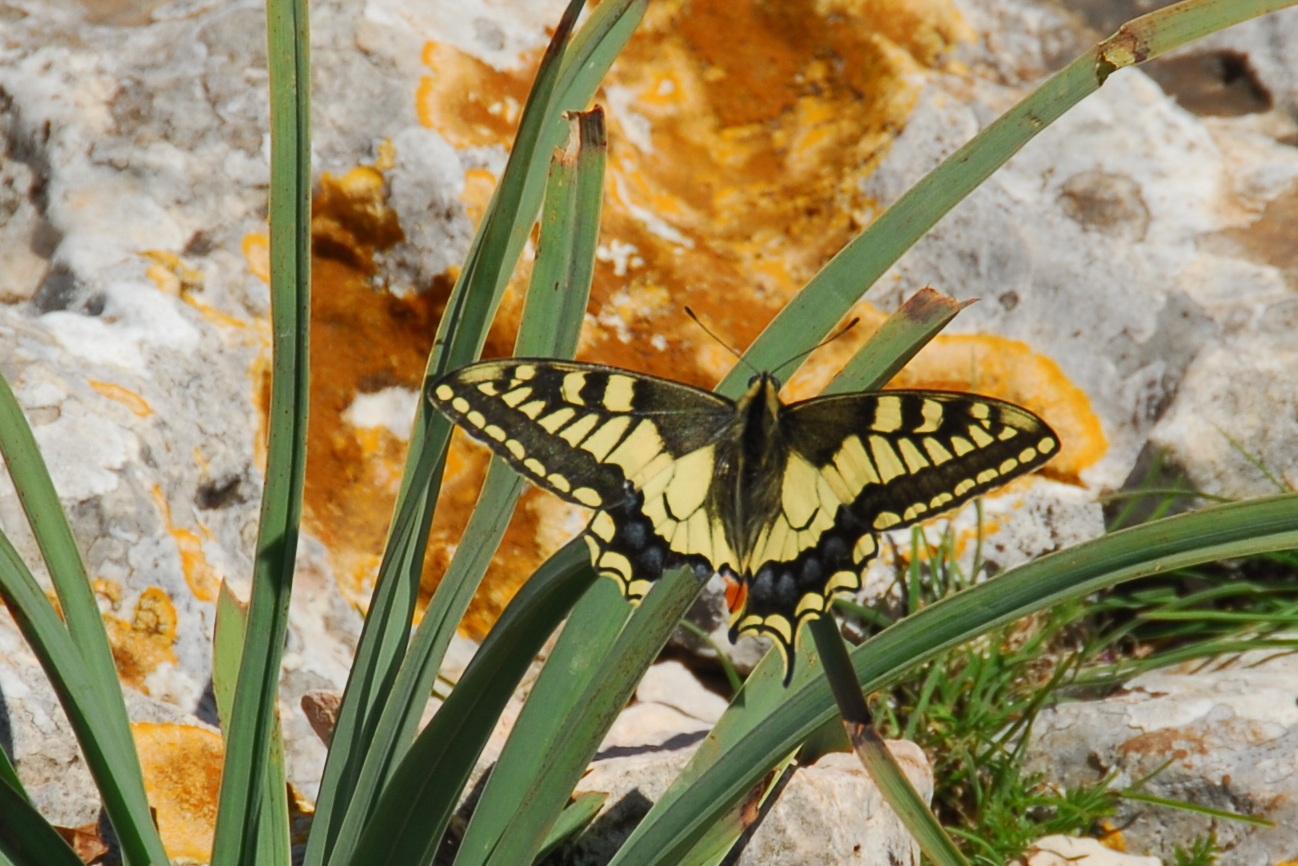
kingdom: Animalia
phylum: Arthropoda
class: Insecta
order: Lepidoptera
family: Papilionidae
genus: Papilio
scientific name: Papilio machaon
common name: Swallowtail
